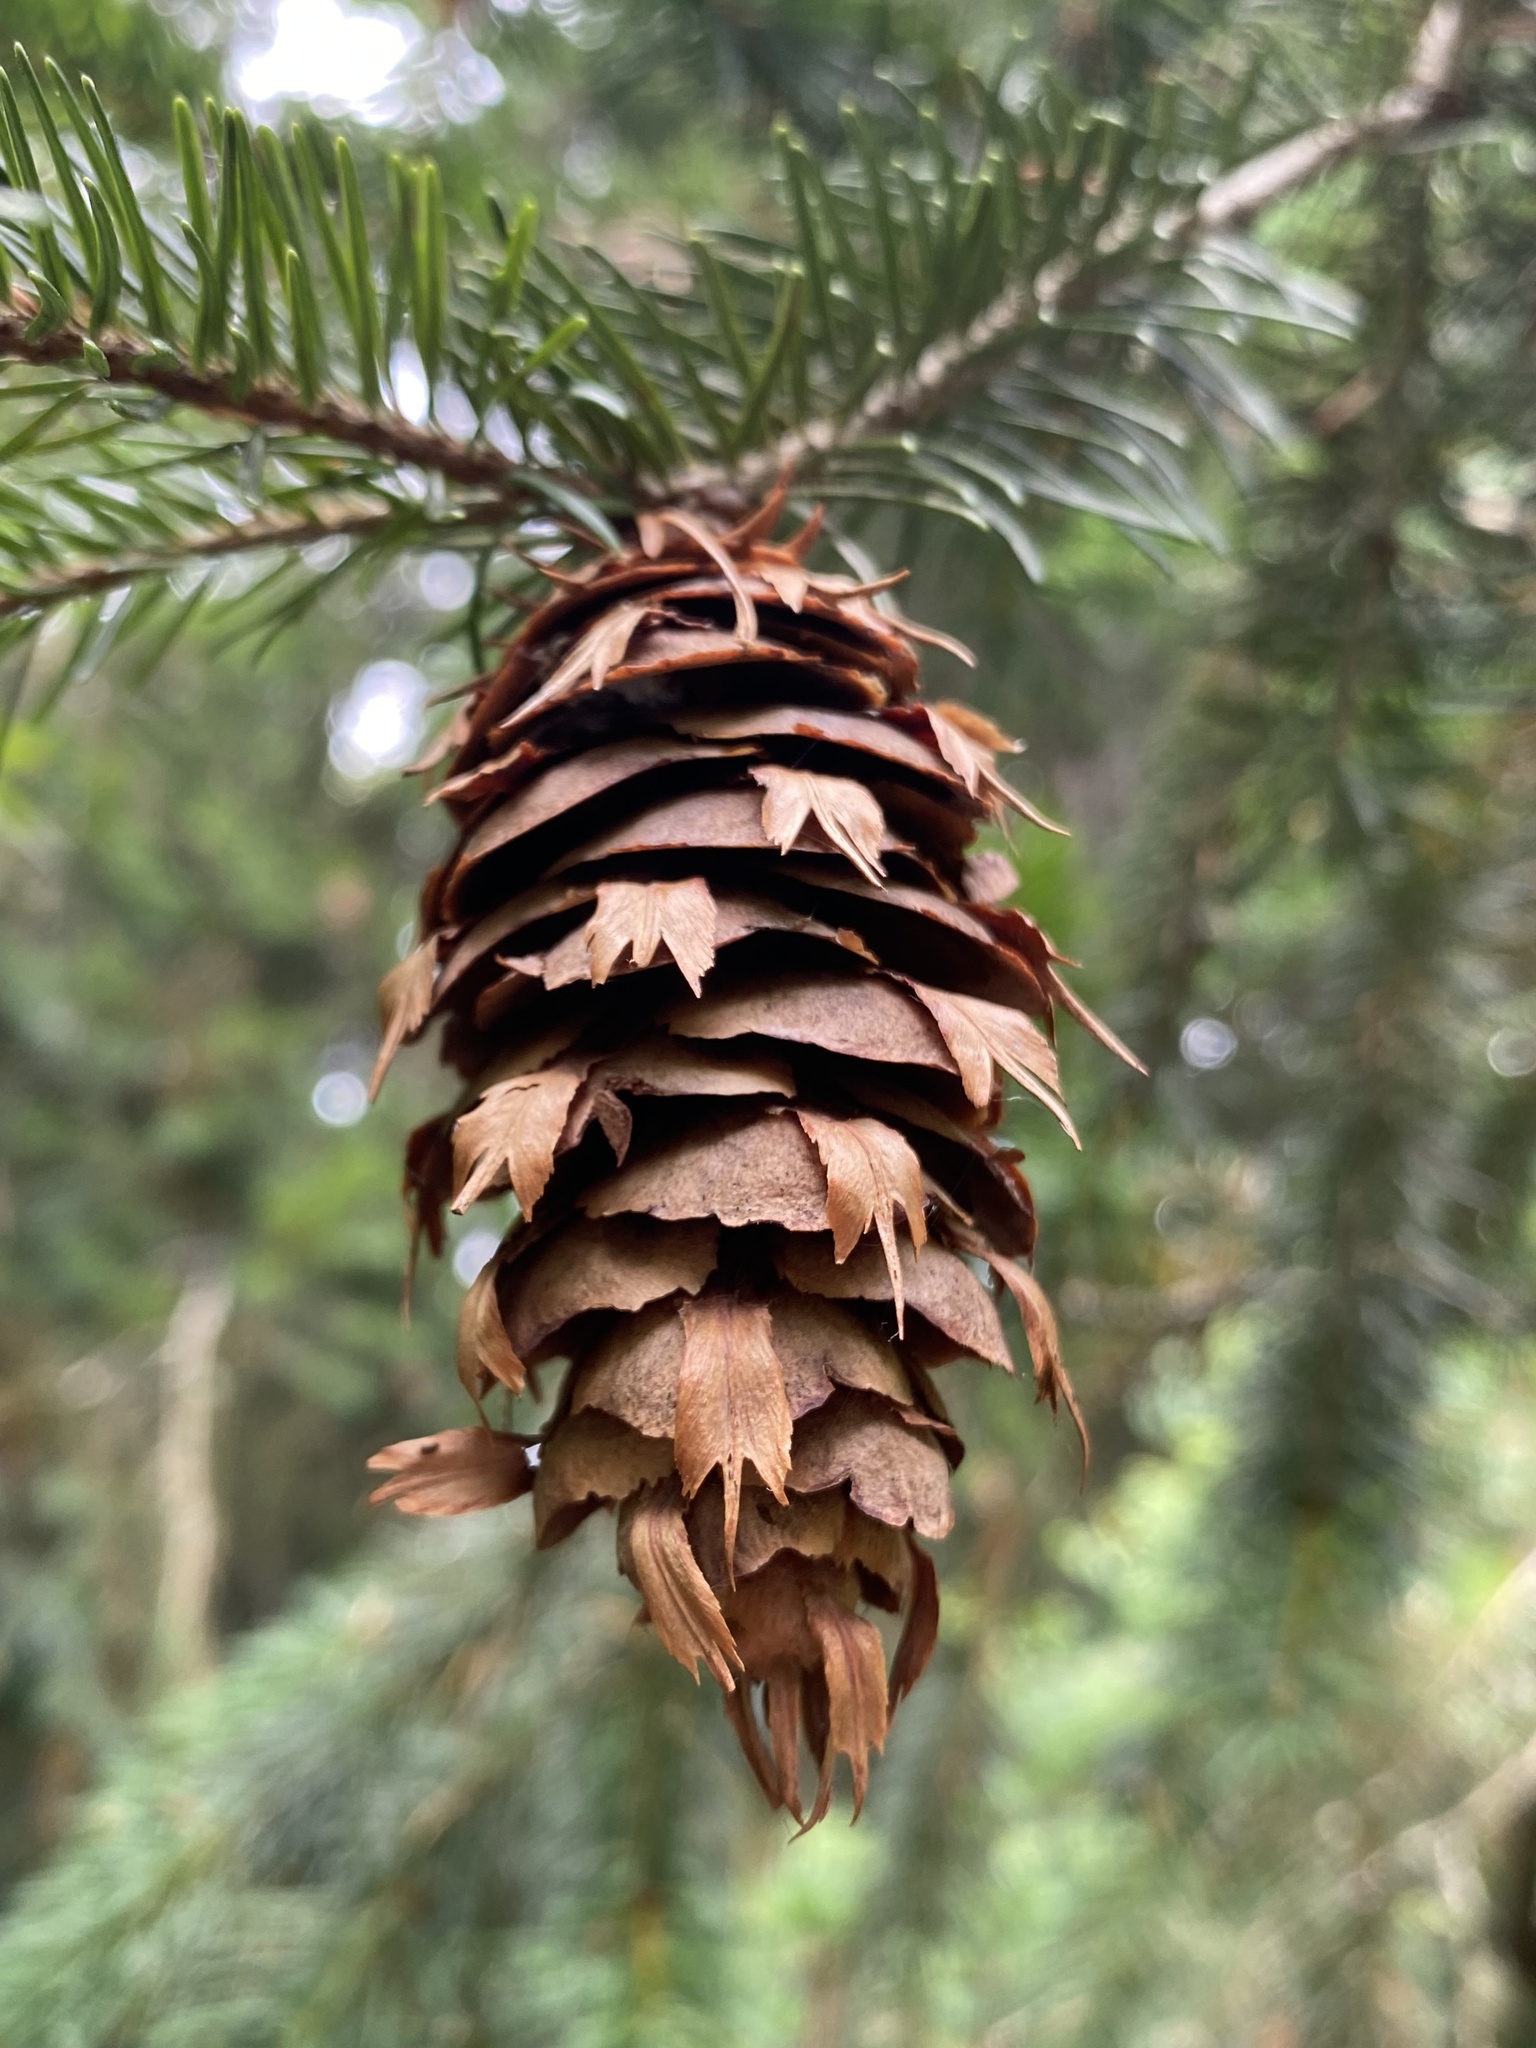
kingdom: Plantae
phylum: Tracheophyta
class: Pinopsida
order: Pinales
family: Pinaceae
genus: Pseudotsuga
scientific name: Pseudotsuga menziesii
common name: Douglas fir
